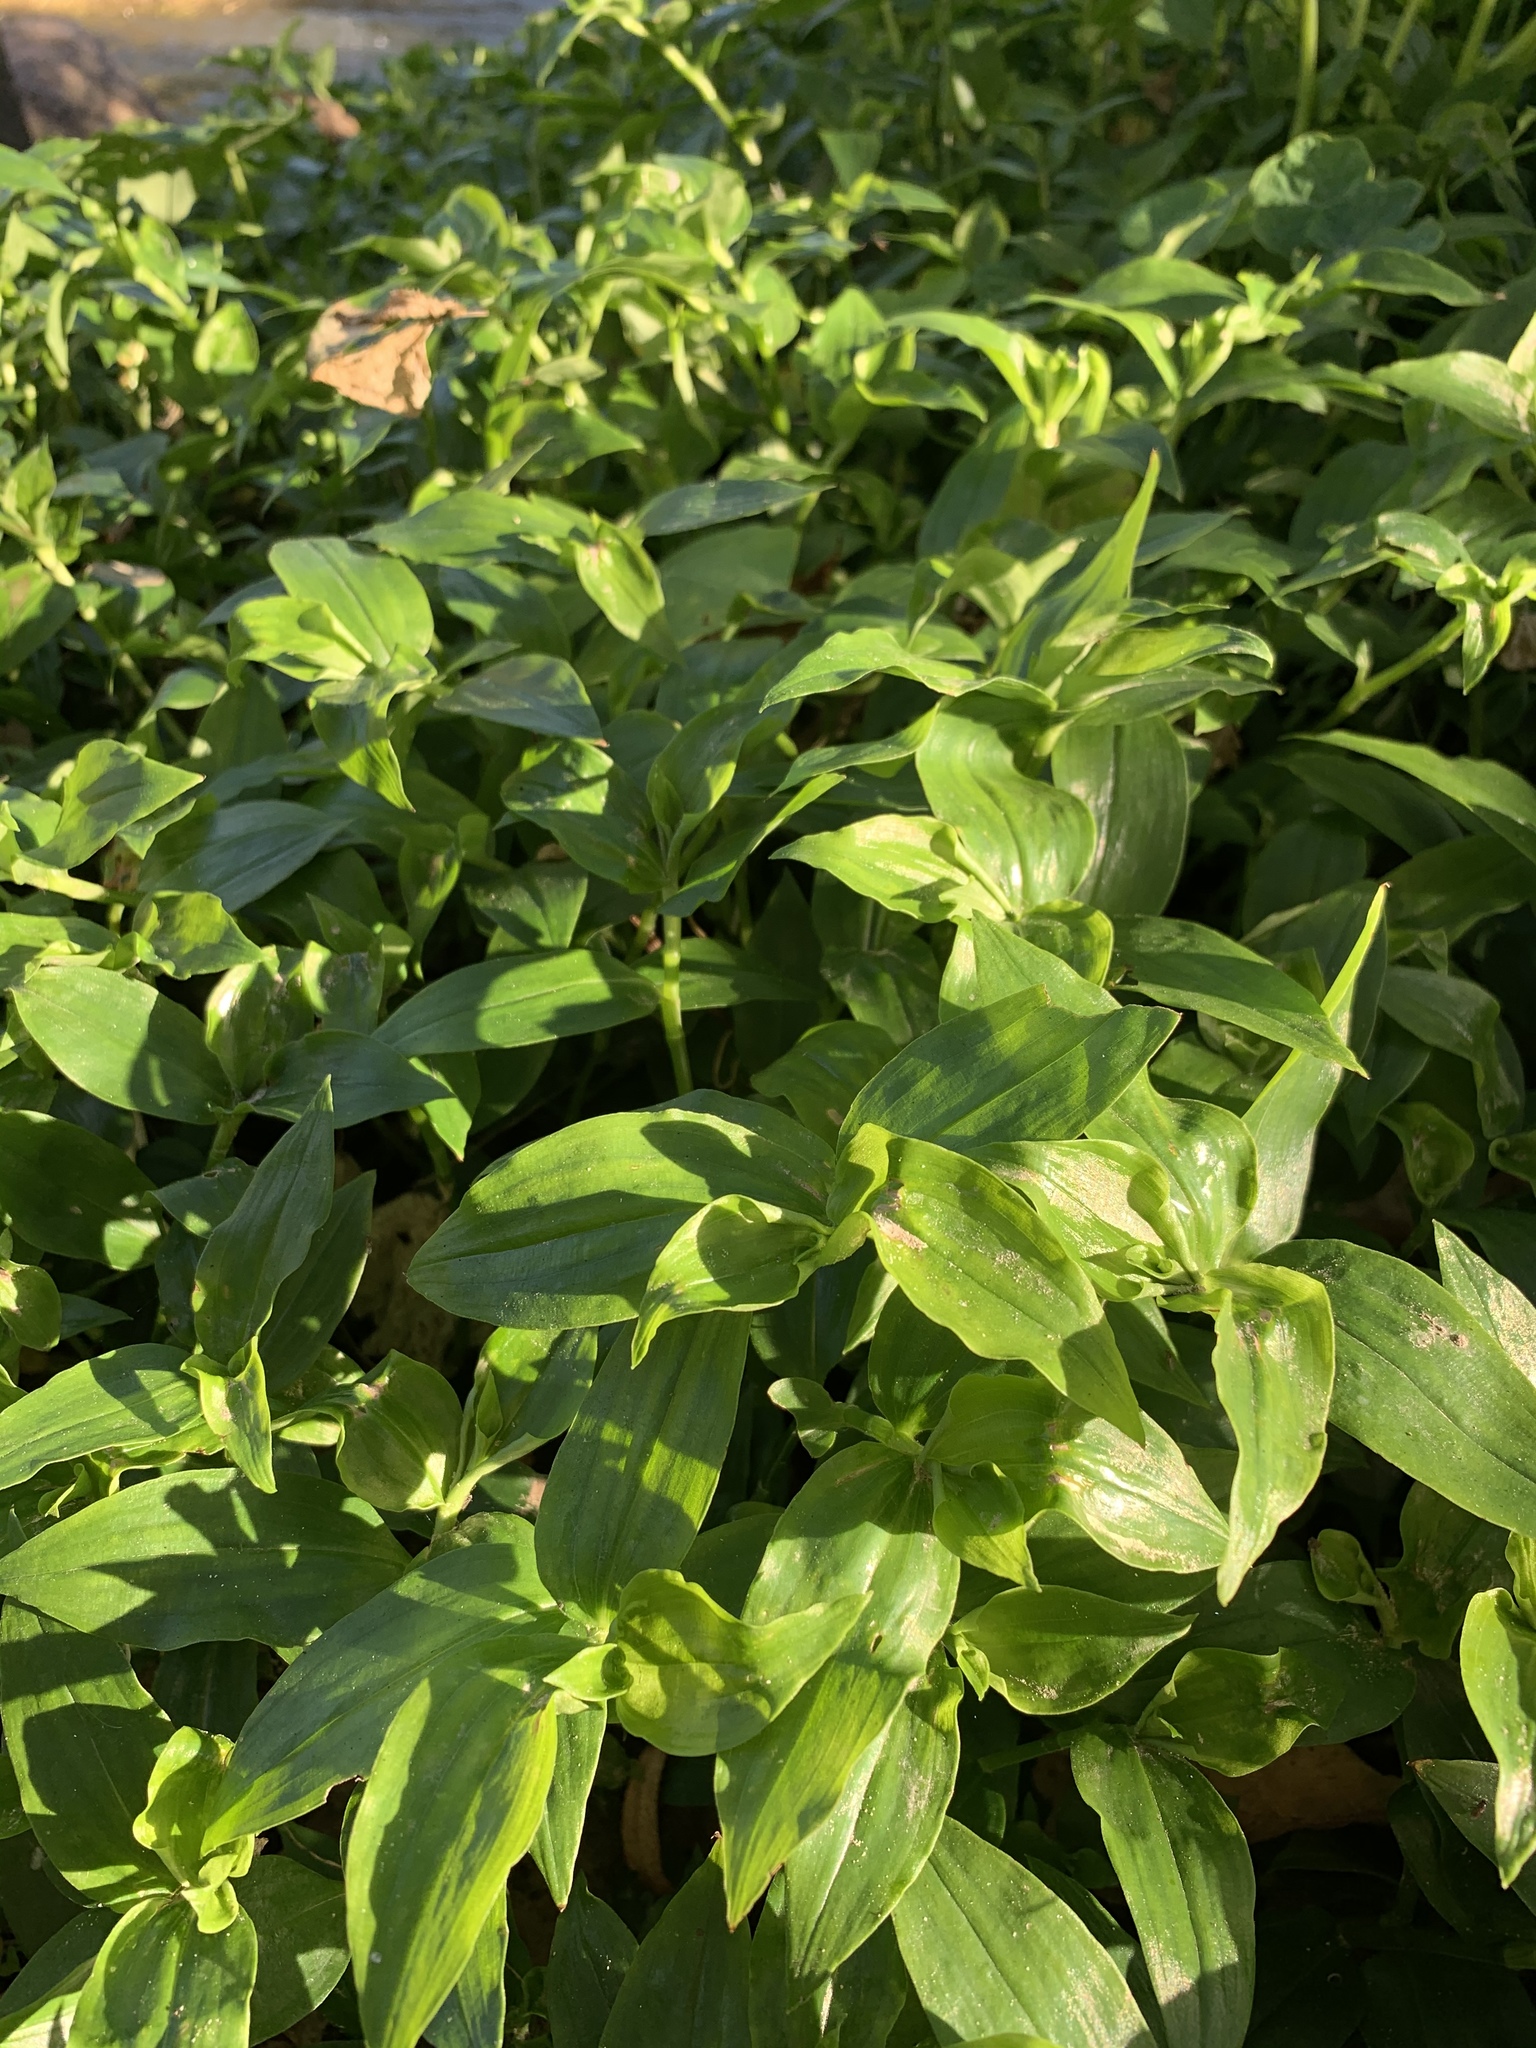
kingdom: Plantae
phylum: Tracheophyta
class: Liliopsida
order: Commelinales
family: Commelinaceae
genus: Tradescantia
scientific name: Tradescantia fluminensis
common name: Wandering-jew
